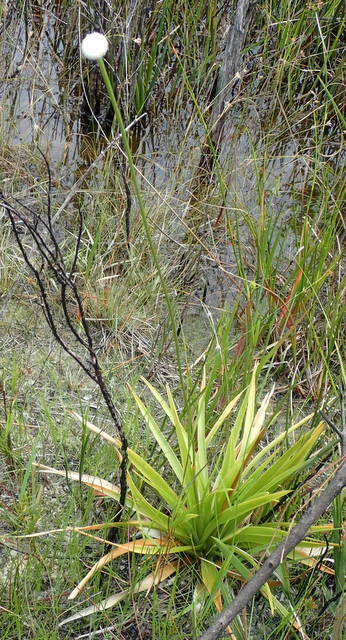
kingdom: Plantae
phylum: Tracheophyta
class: Liliopsida
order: Poales
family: Eriocaulaceae
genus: Eriocaulon
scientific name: Eriocaulon decangulare
